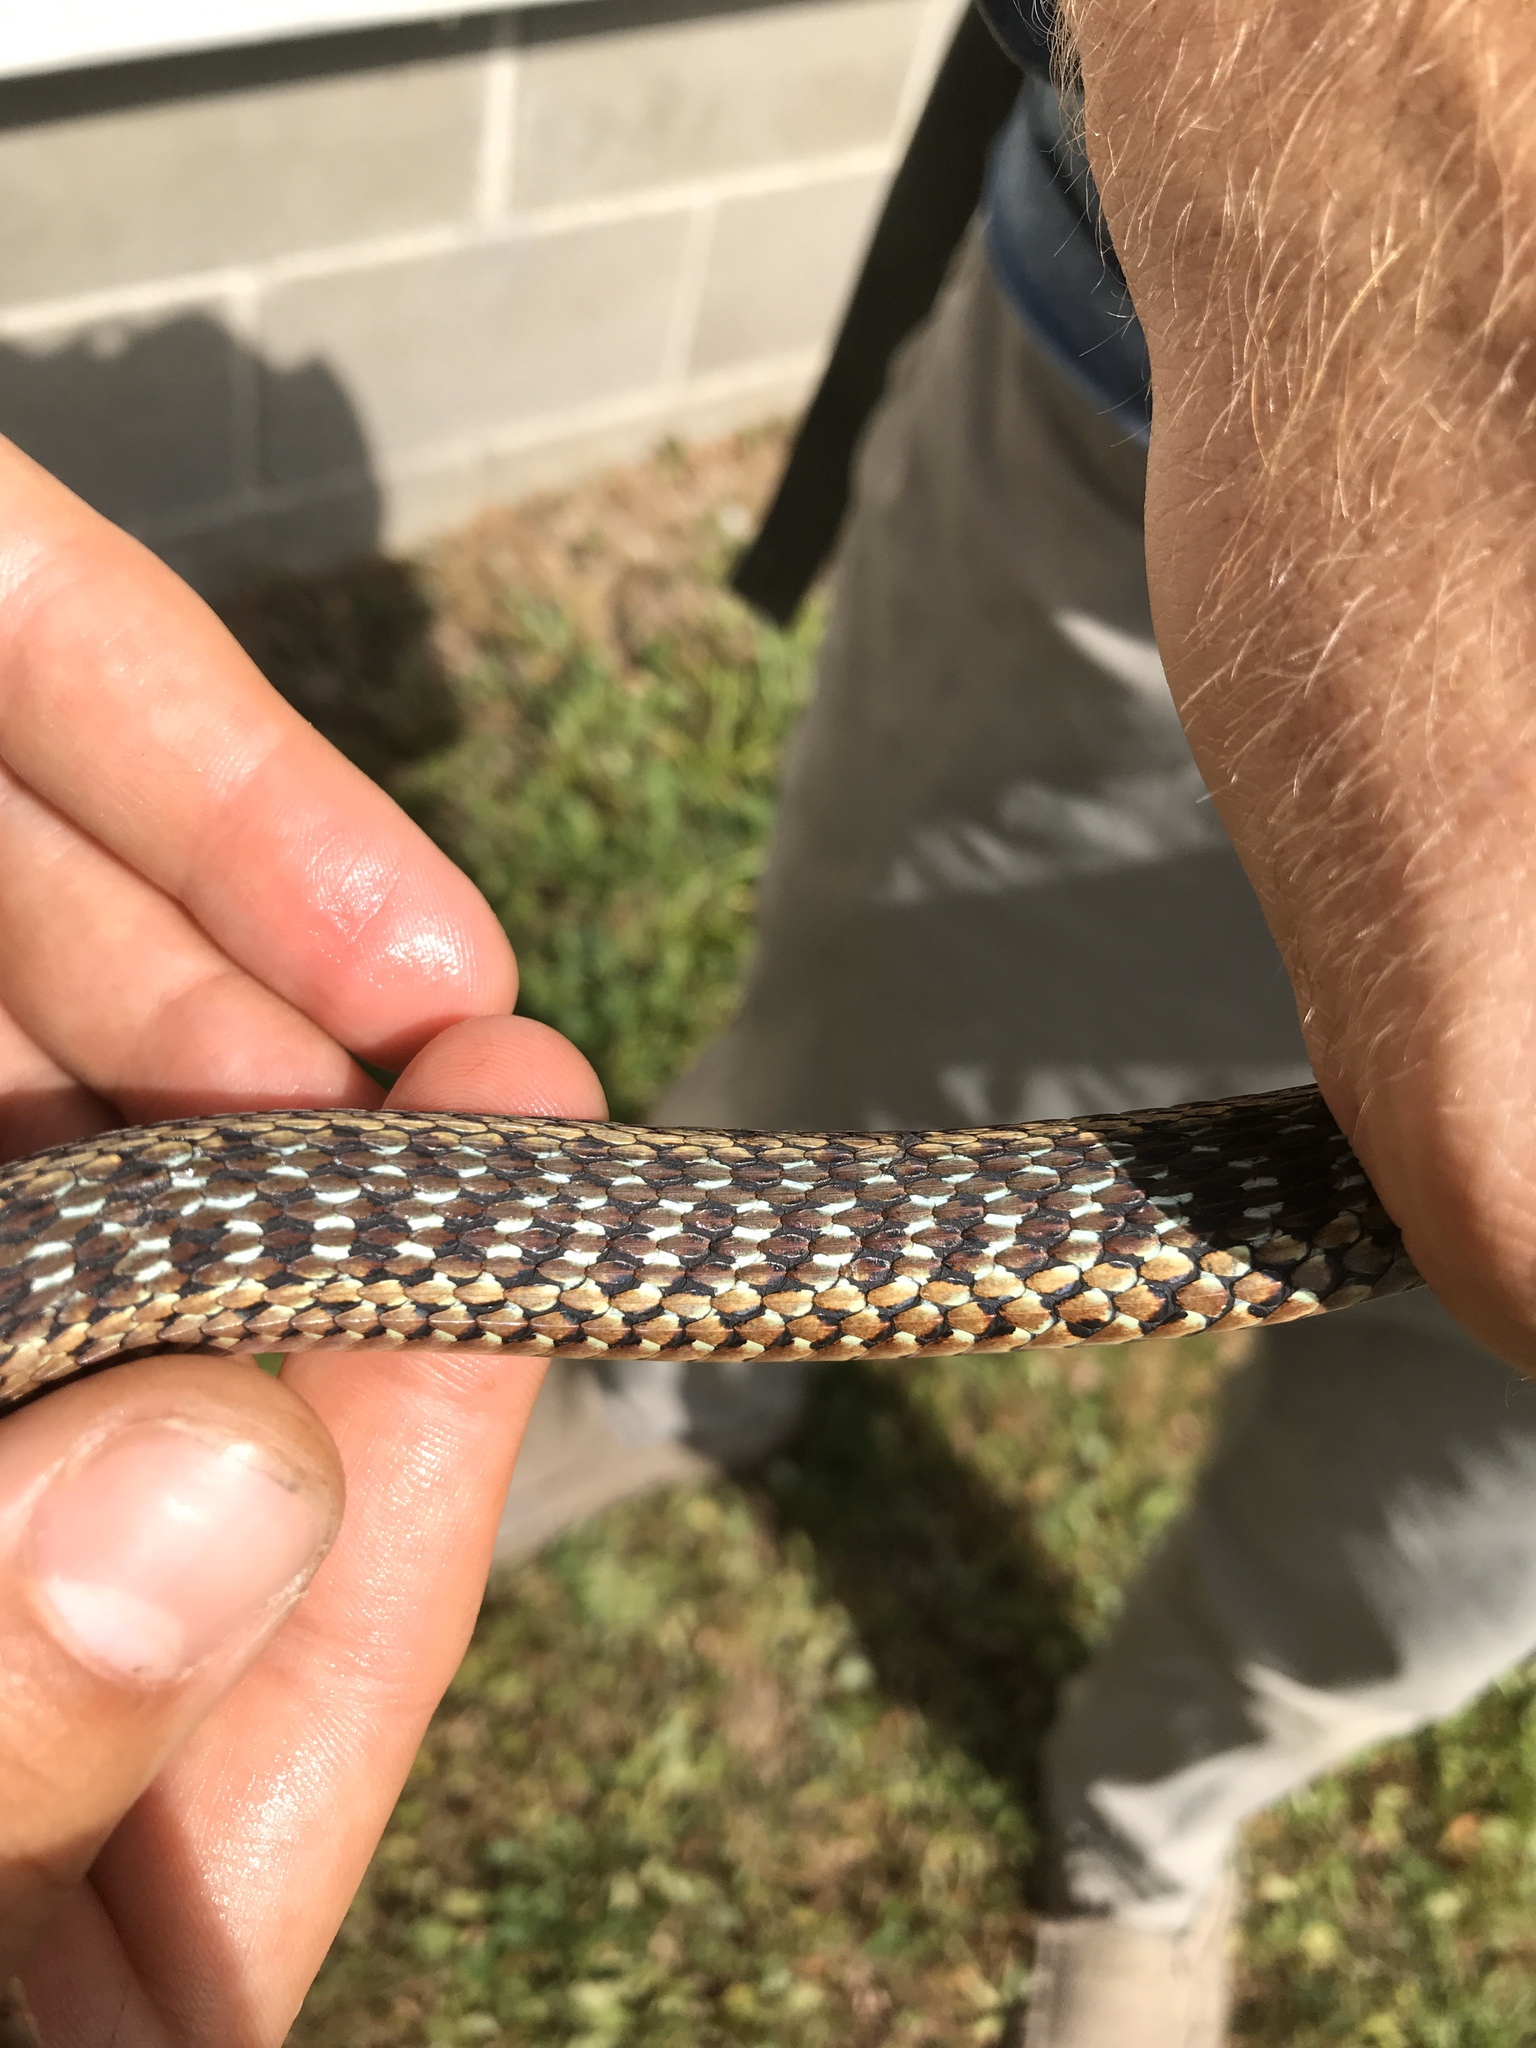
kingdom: Animalia
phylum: Chordata
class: Squamata
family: Colubridae
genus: Thamnophis
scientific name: Thamnophis sirtalis
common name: Common garter snake
